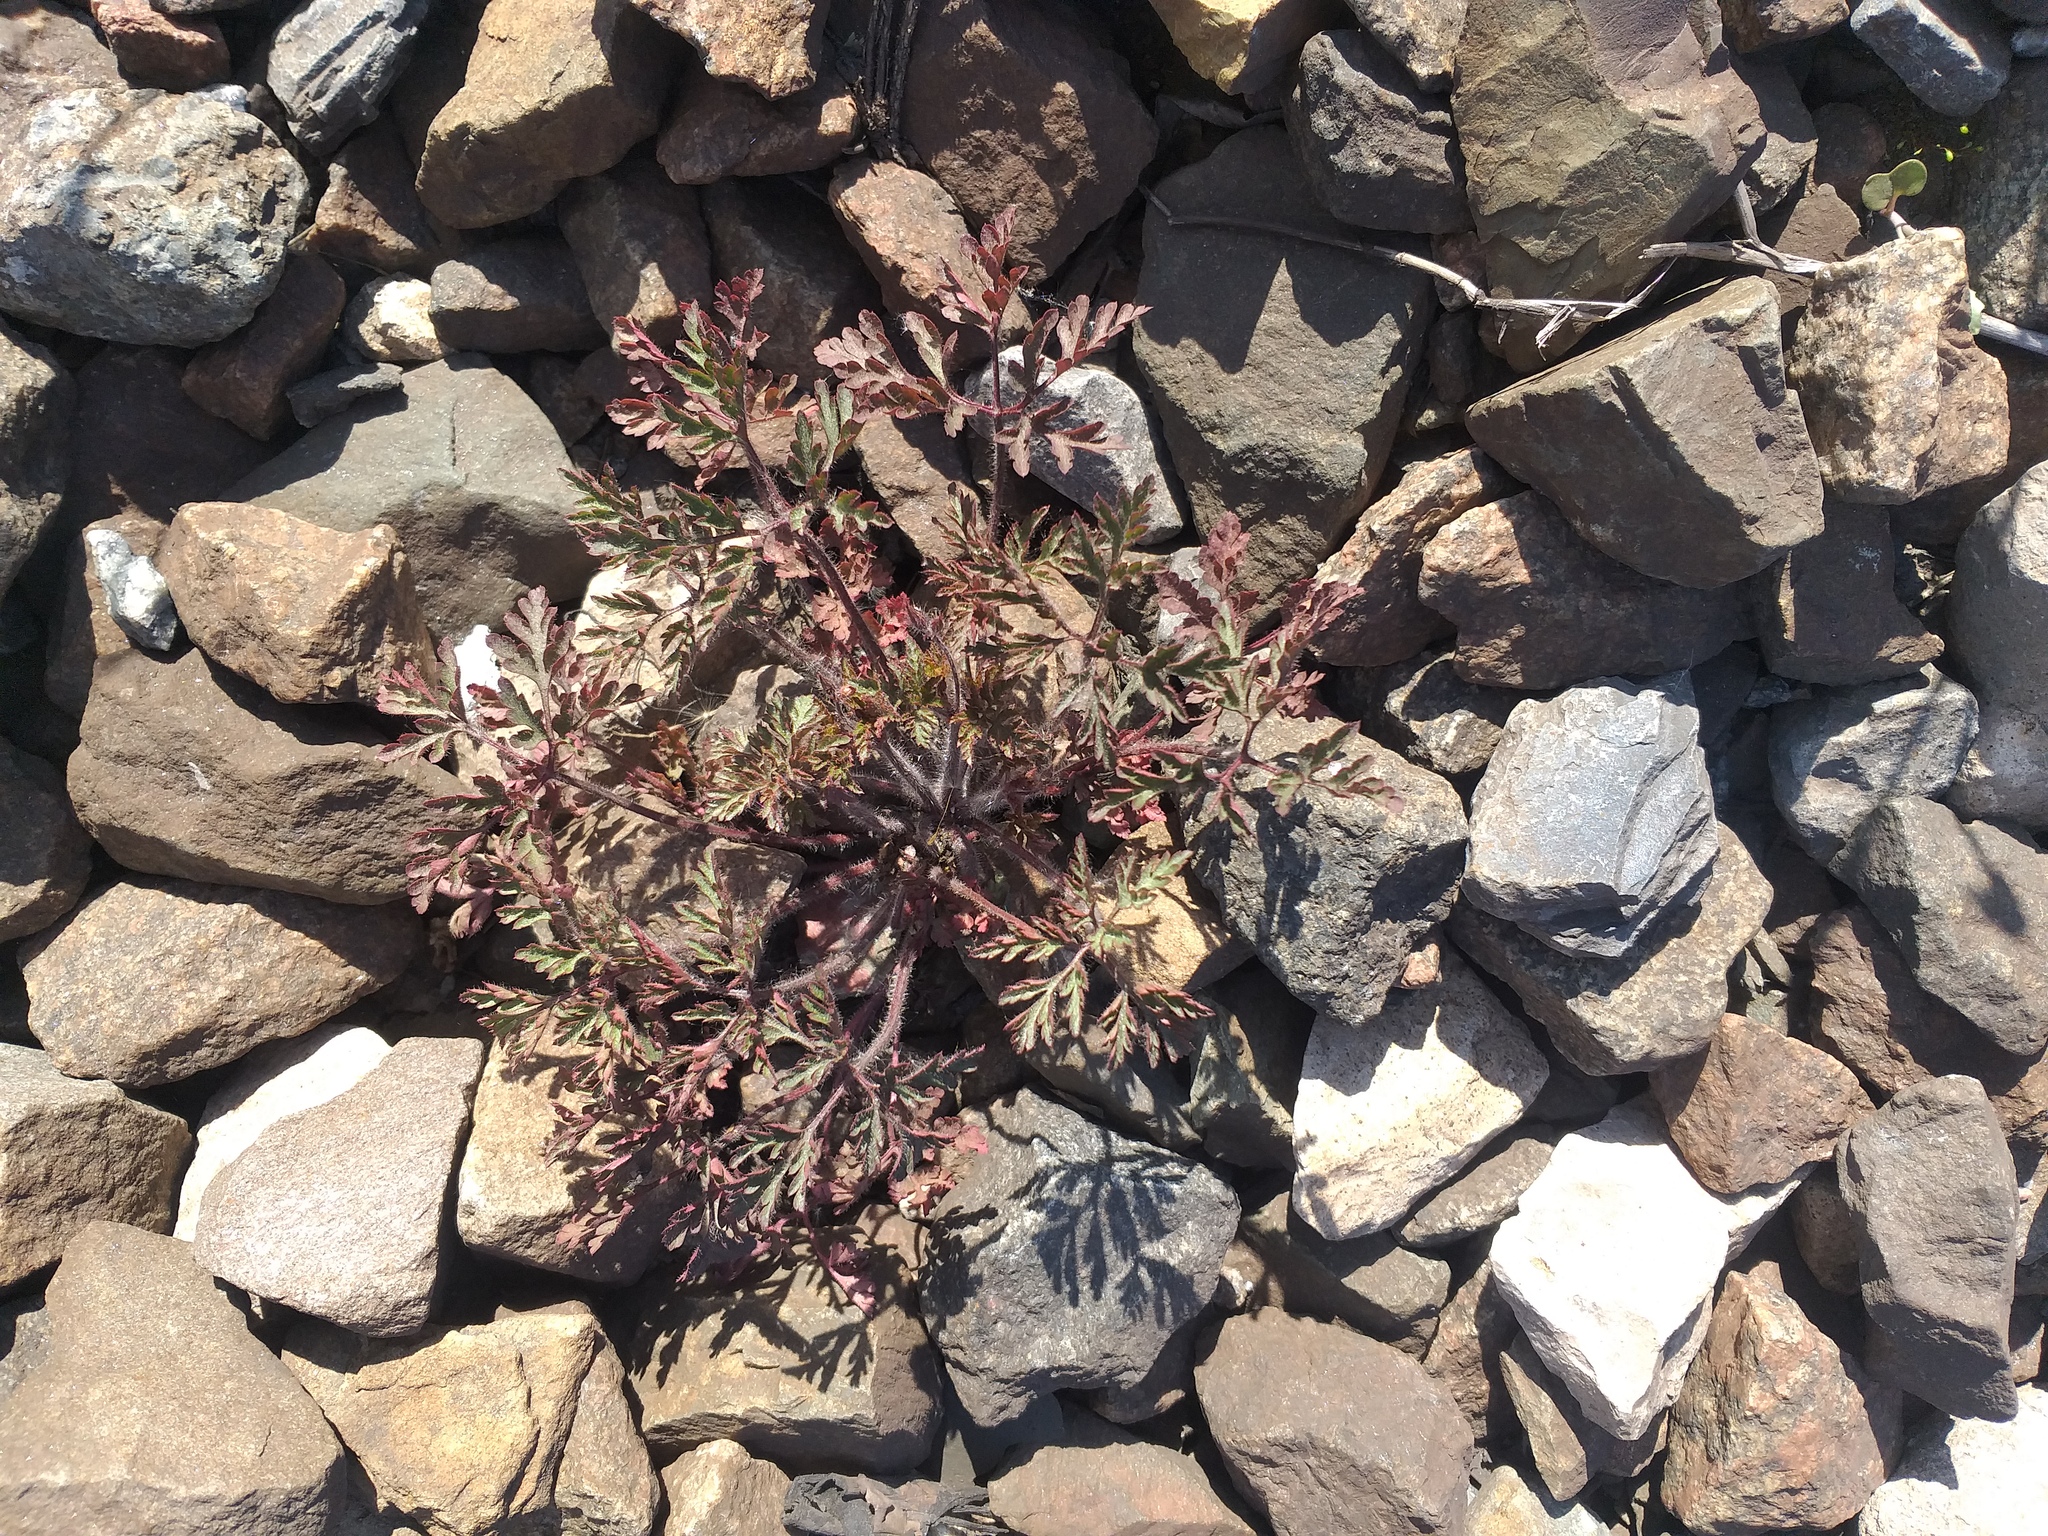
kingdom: Plantae
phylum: Tracheophyta
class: Magnoliopsida
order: Geraniales
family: Geraniaceae
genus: Geranium
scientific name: Geranium robertianum
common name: Herb-robert
